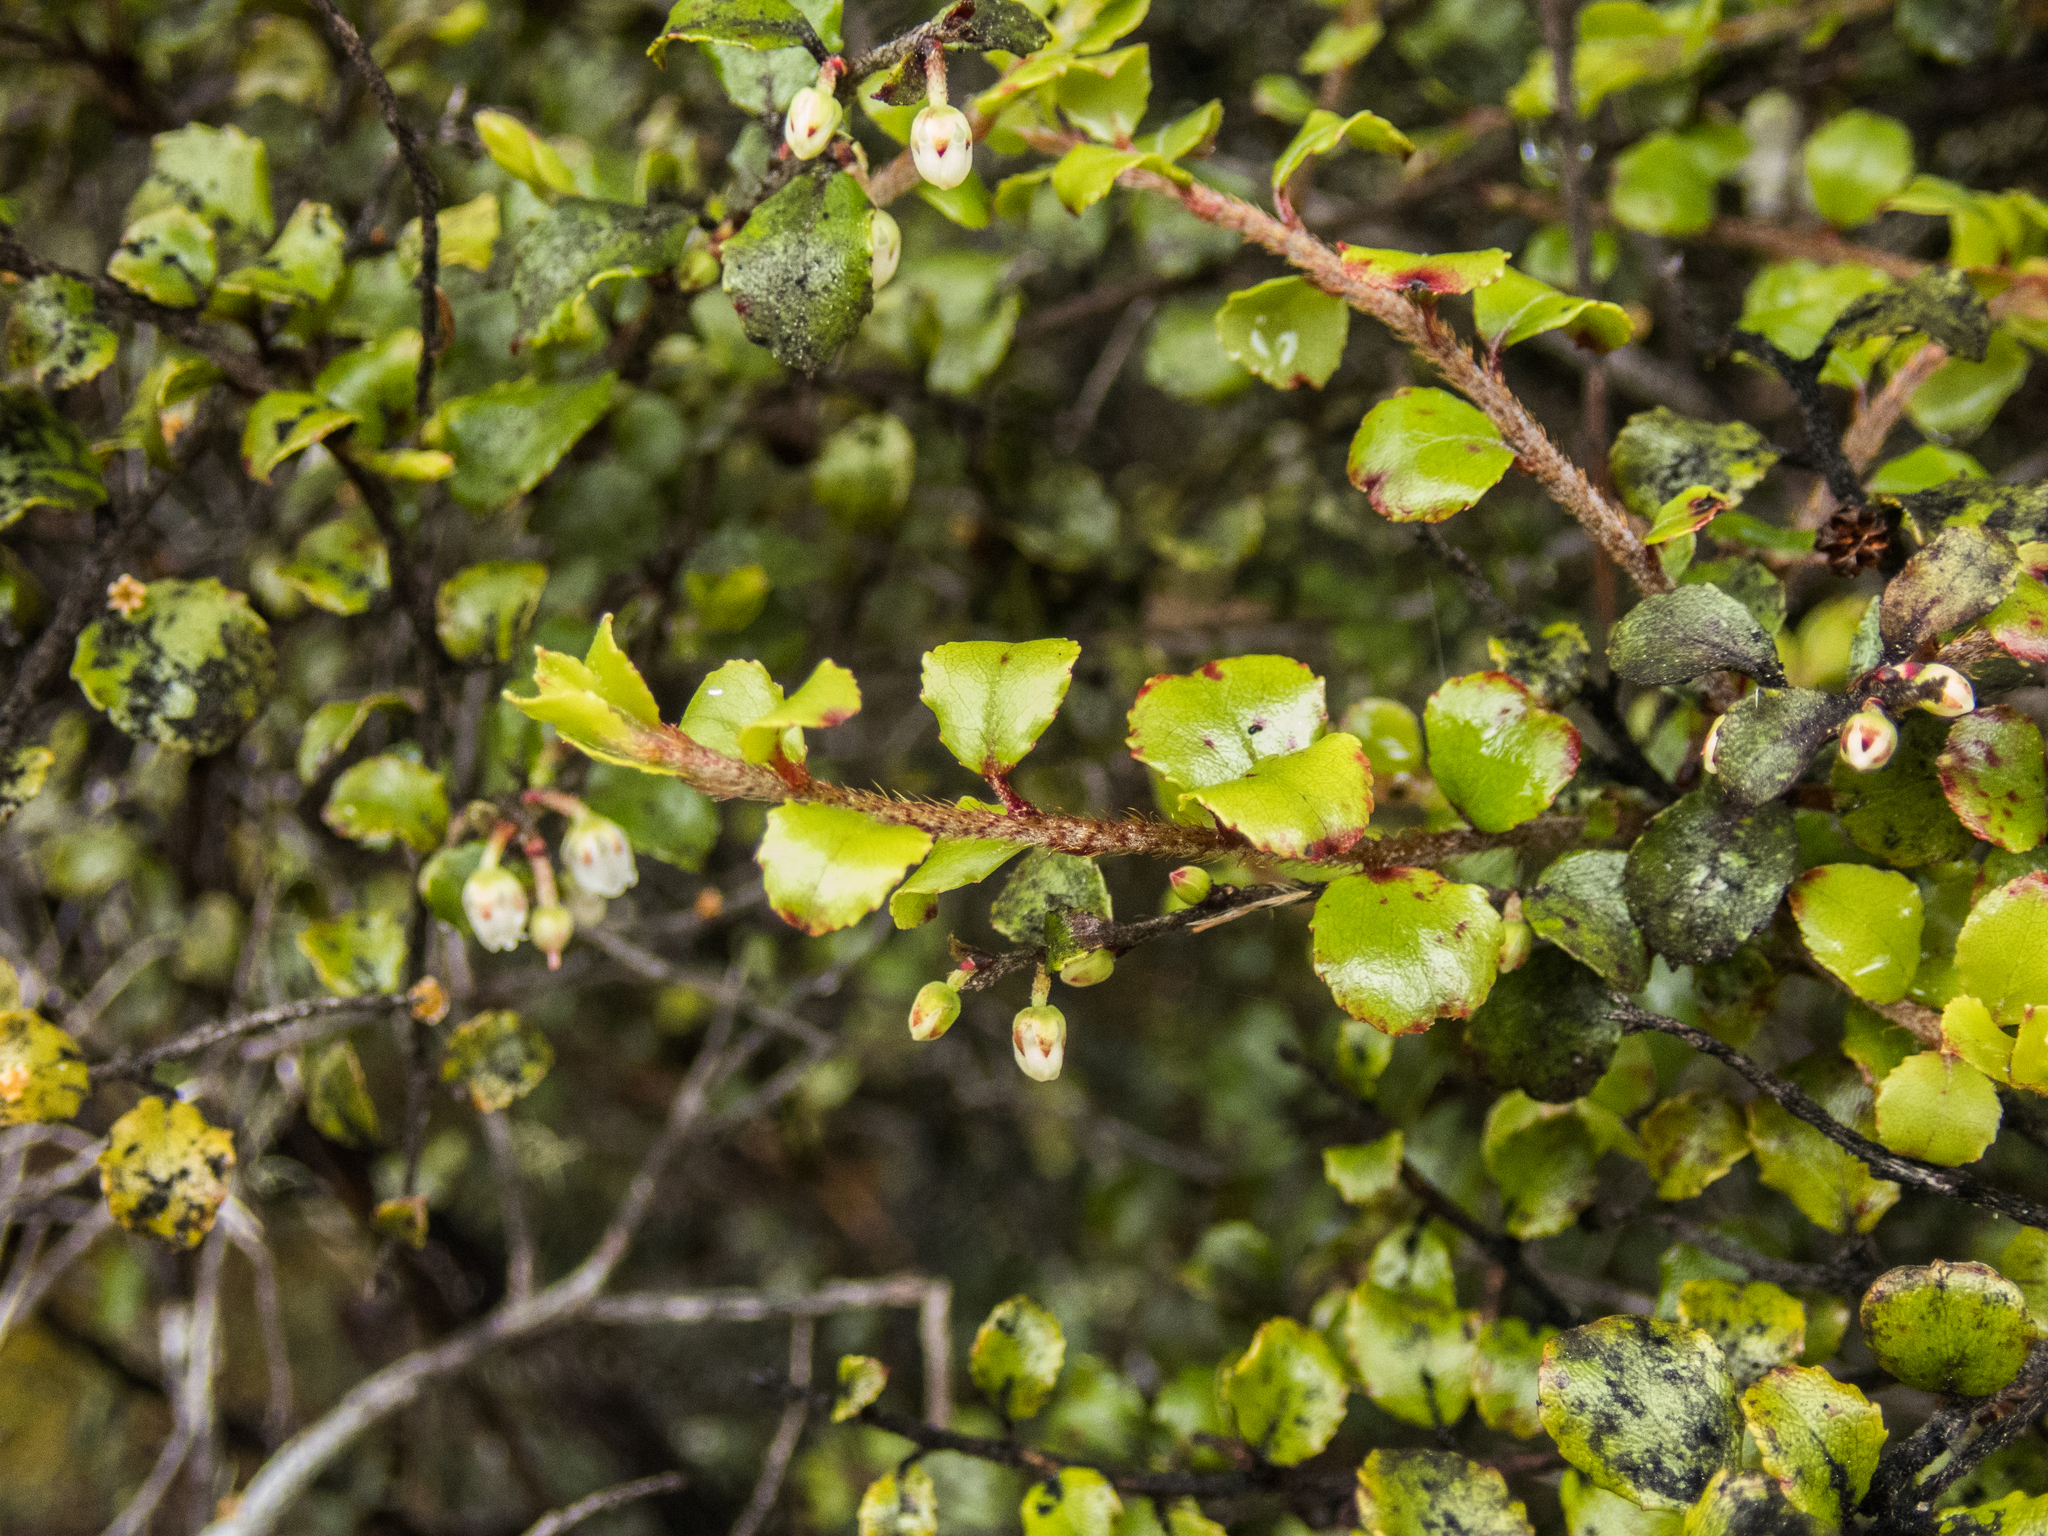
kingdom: Plantae
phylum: Tracheophyta
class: Magnoliopsida
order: Ericales
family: Ericaceae
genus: Gaultheria
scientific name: Gaultheria antipoda
